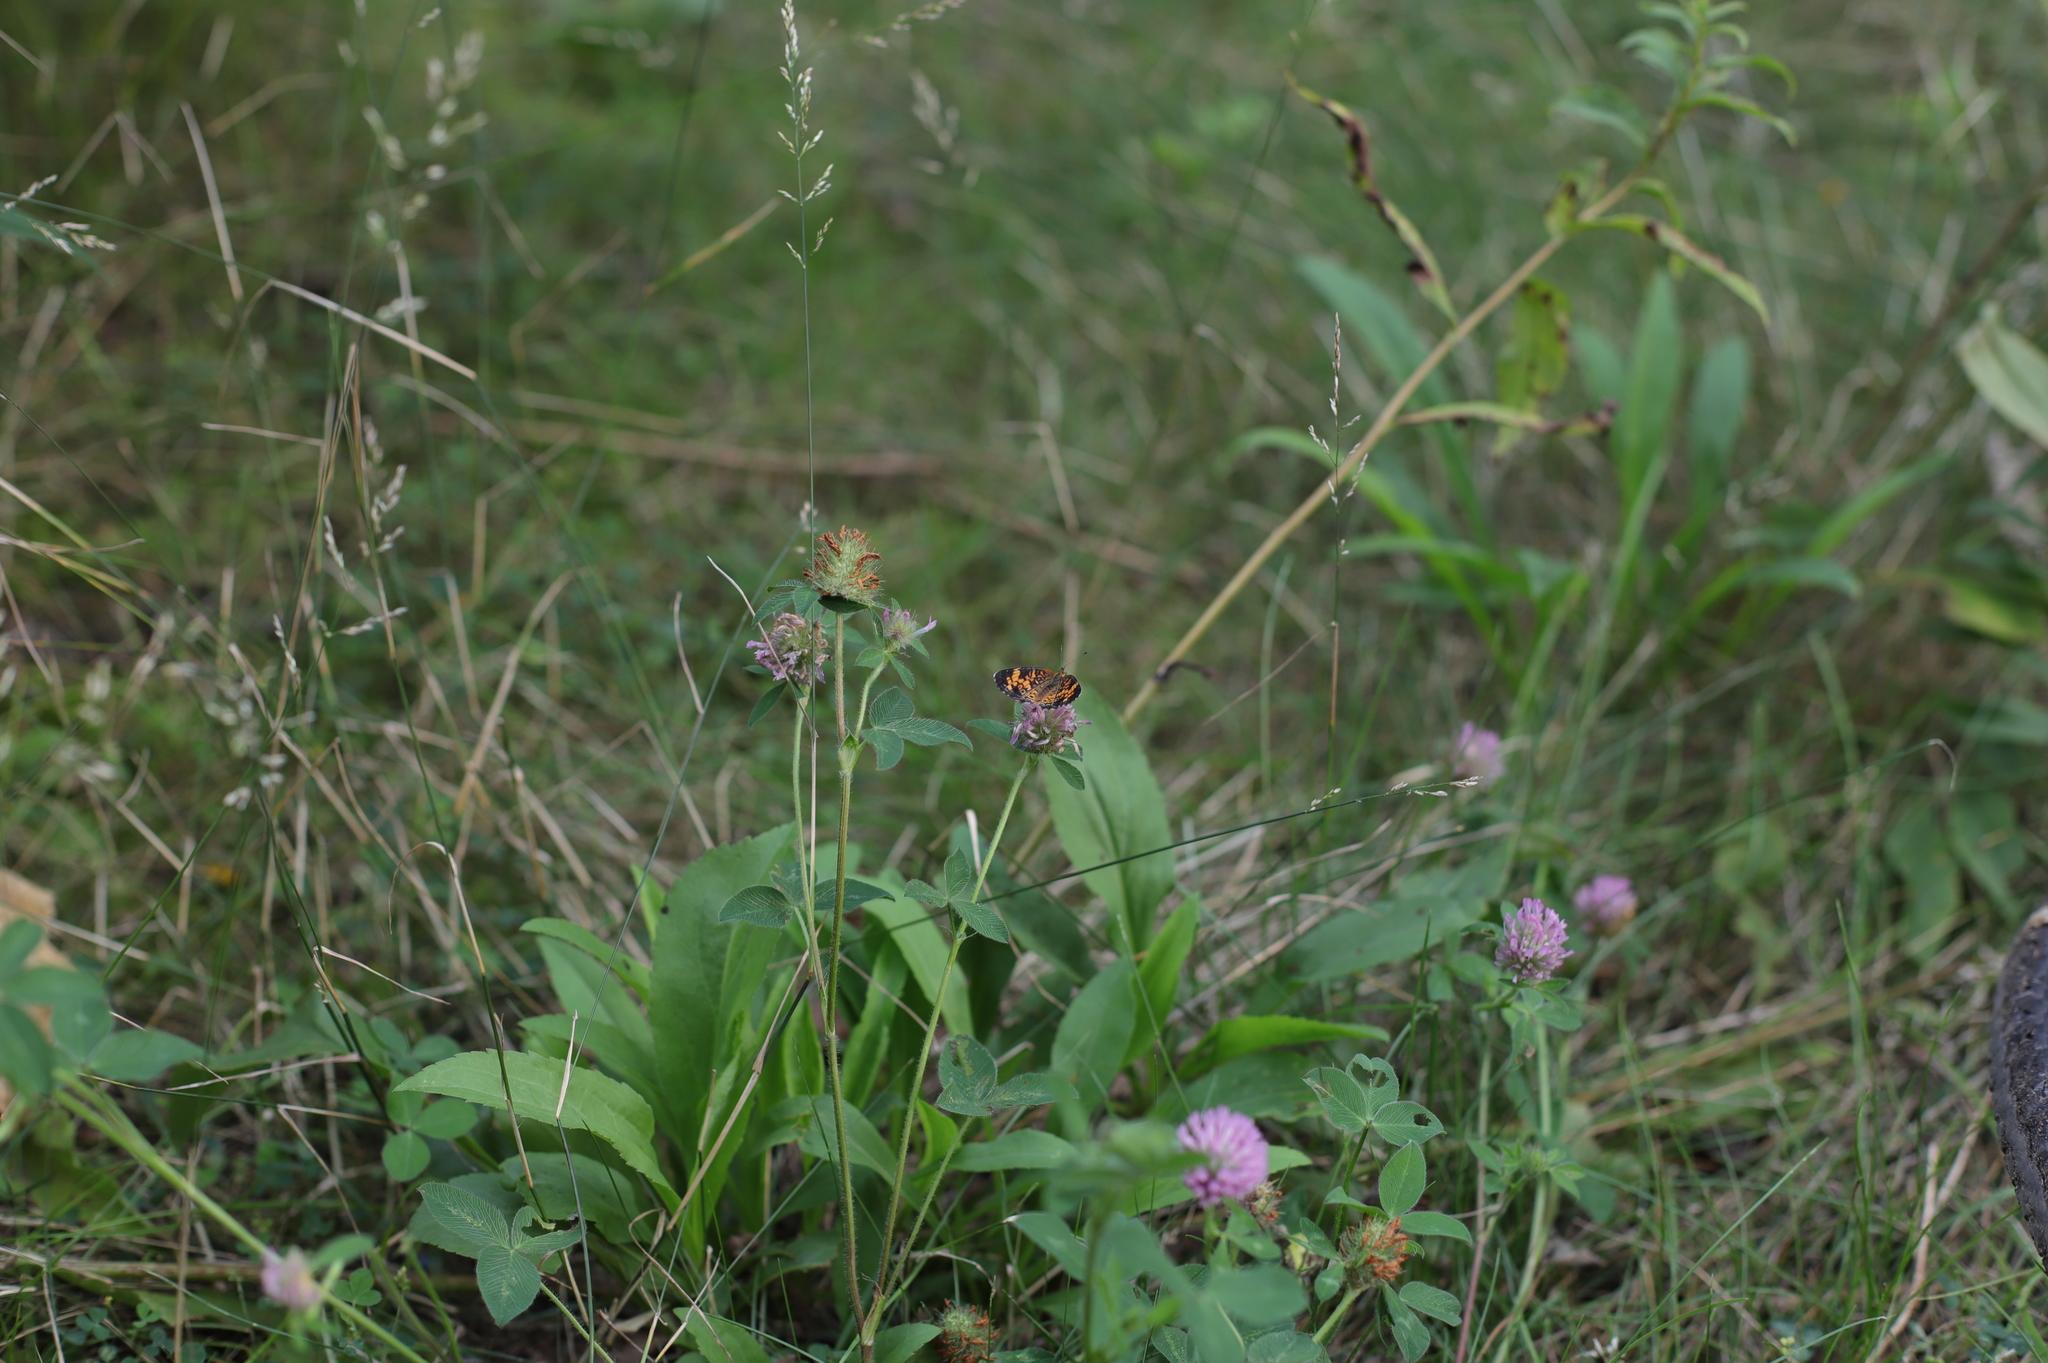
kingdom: Plantae
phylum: Tracheophyta
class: Magnoliopsida
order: Fabales
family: Fabaceae
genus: Trifolium
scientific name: Trifolium pratense
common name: Red clover
